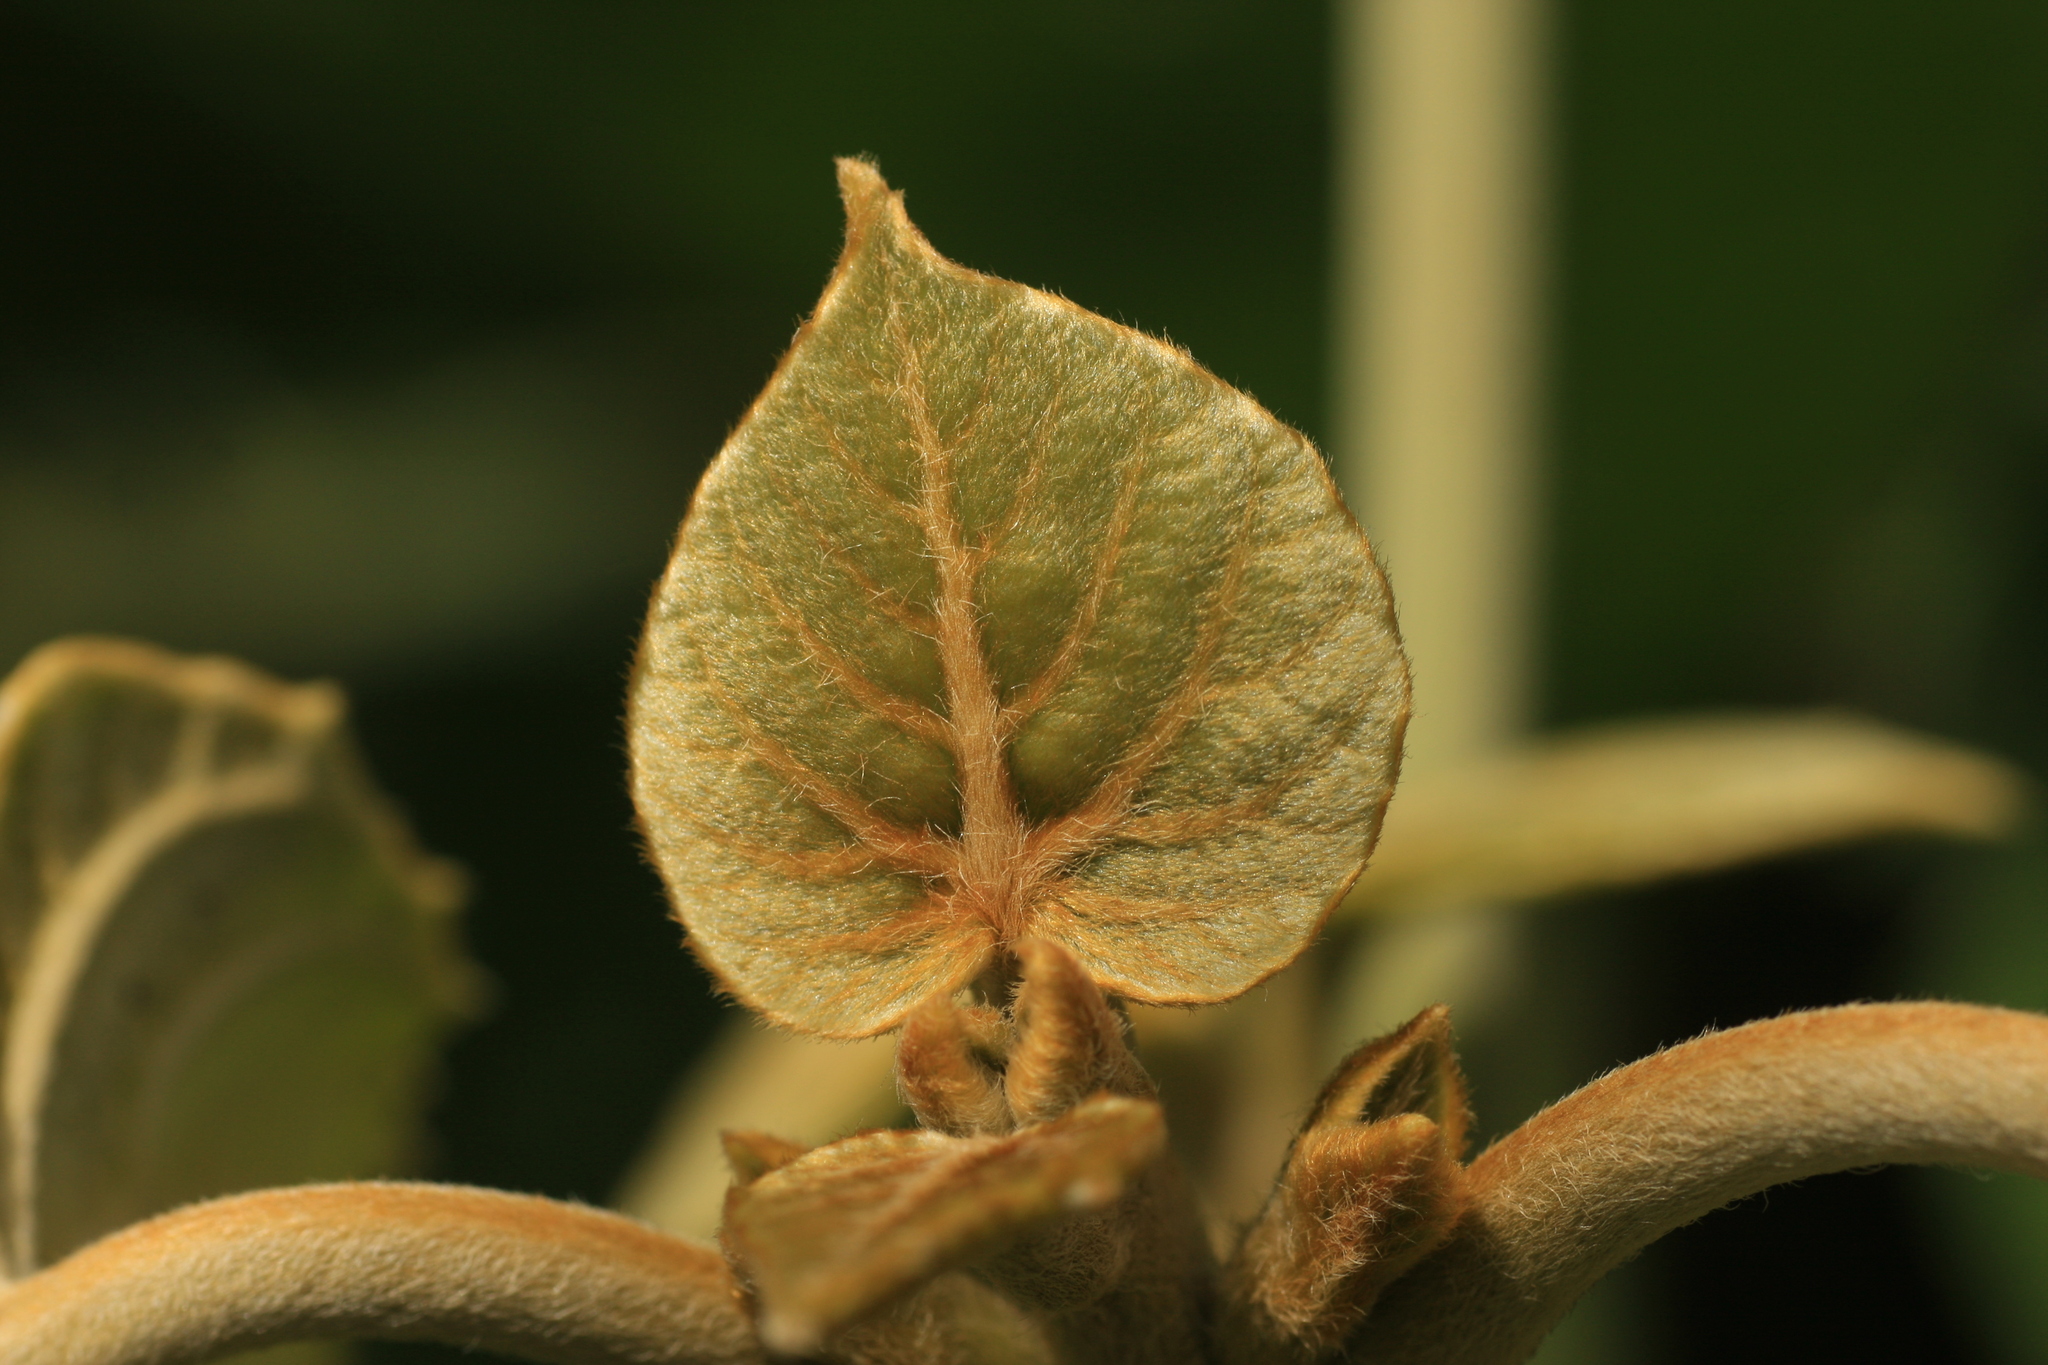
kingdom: Plantae
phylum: Tracheophyta
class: Magnoliopsida
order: Lamiales
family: Lamiaceae
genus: Clerodendrum
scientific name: Clerodendrum infortunatum
